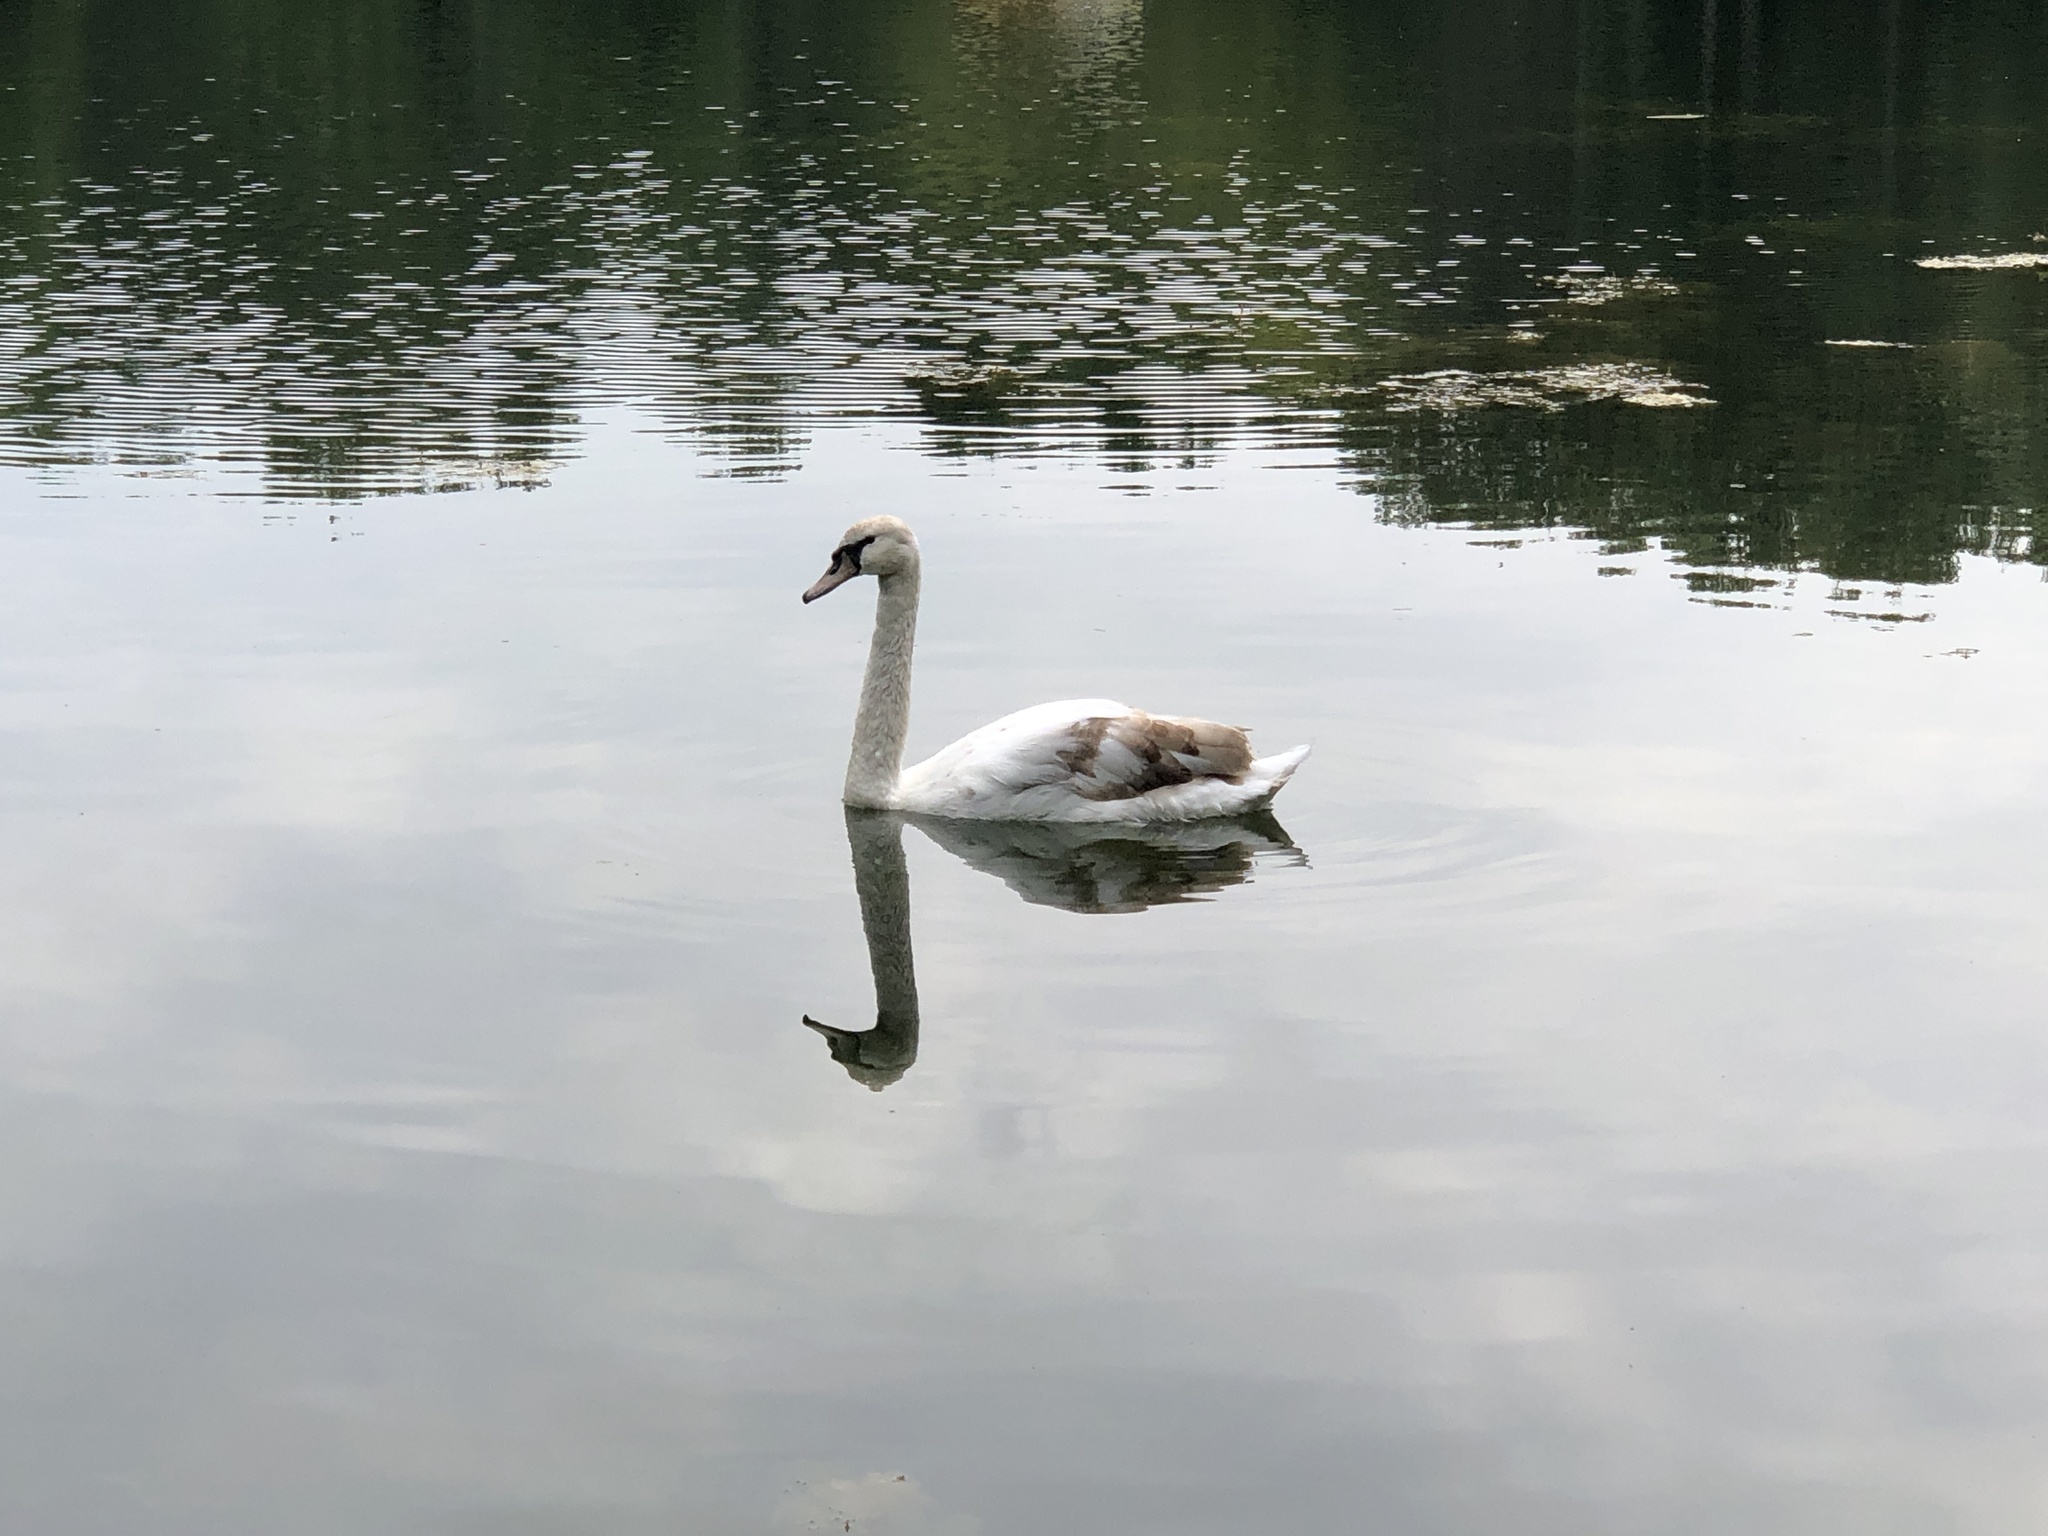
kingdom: Animalia
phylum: Chordata
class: Aves
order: Anseriformes
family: Anatidae
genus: Cygnus
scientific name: Cygnus olor
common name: Mute swan
